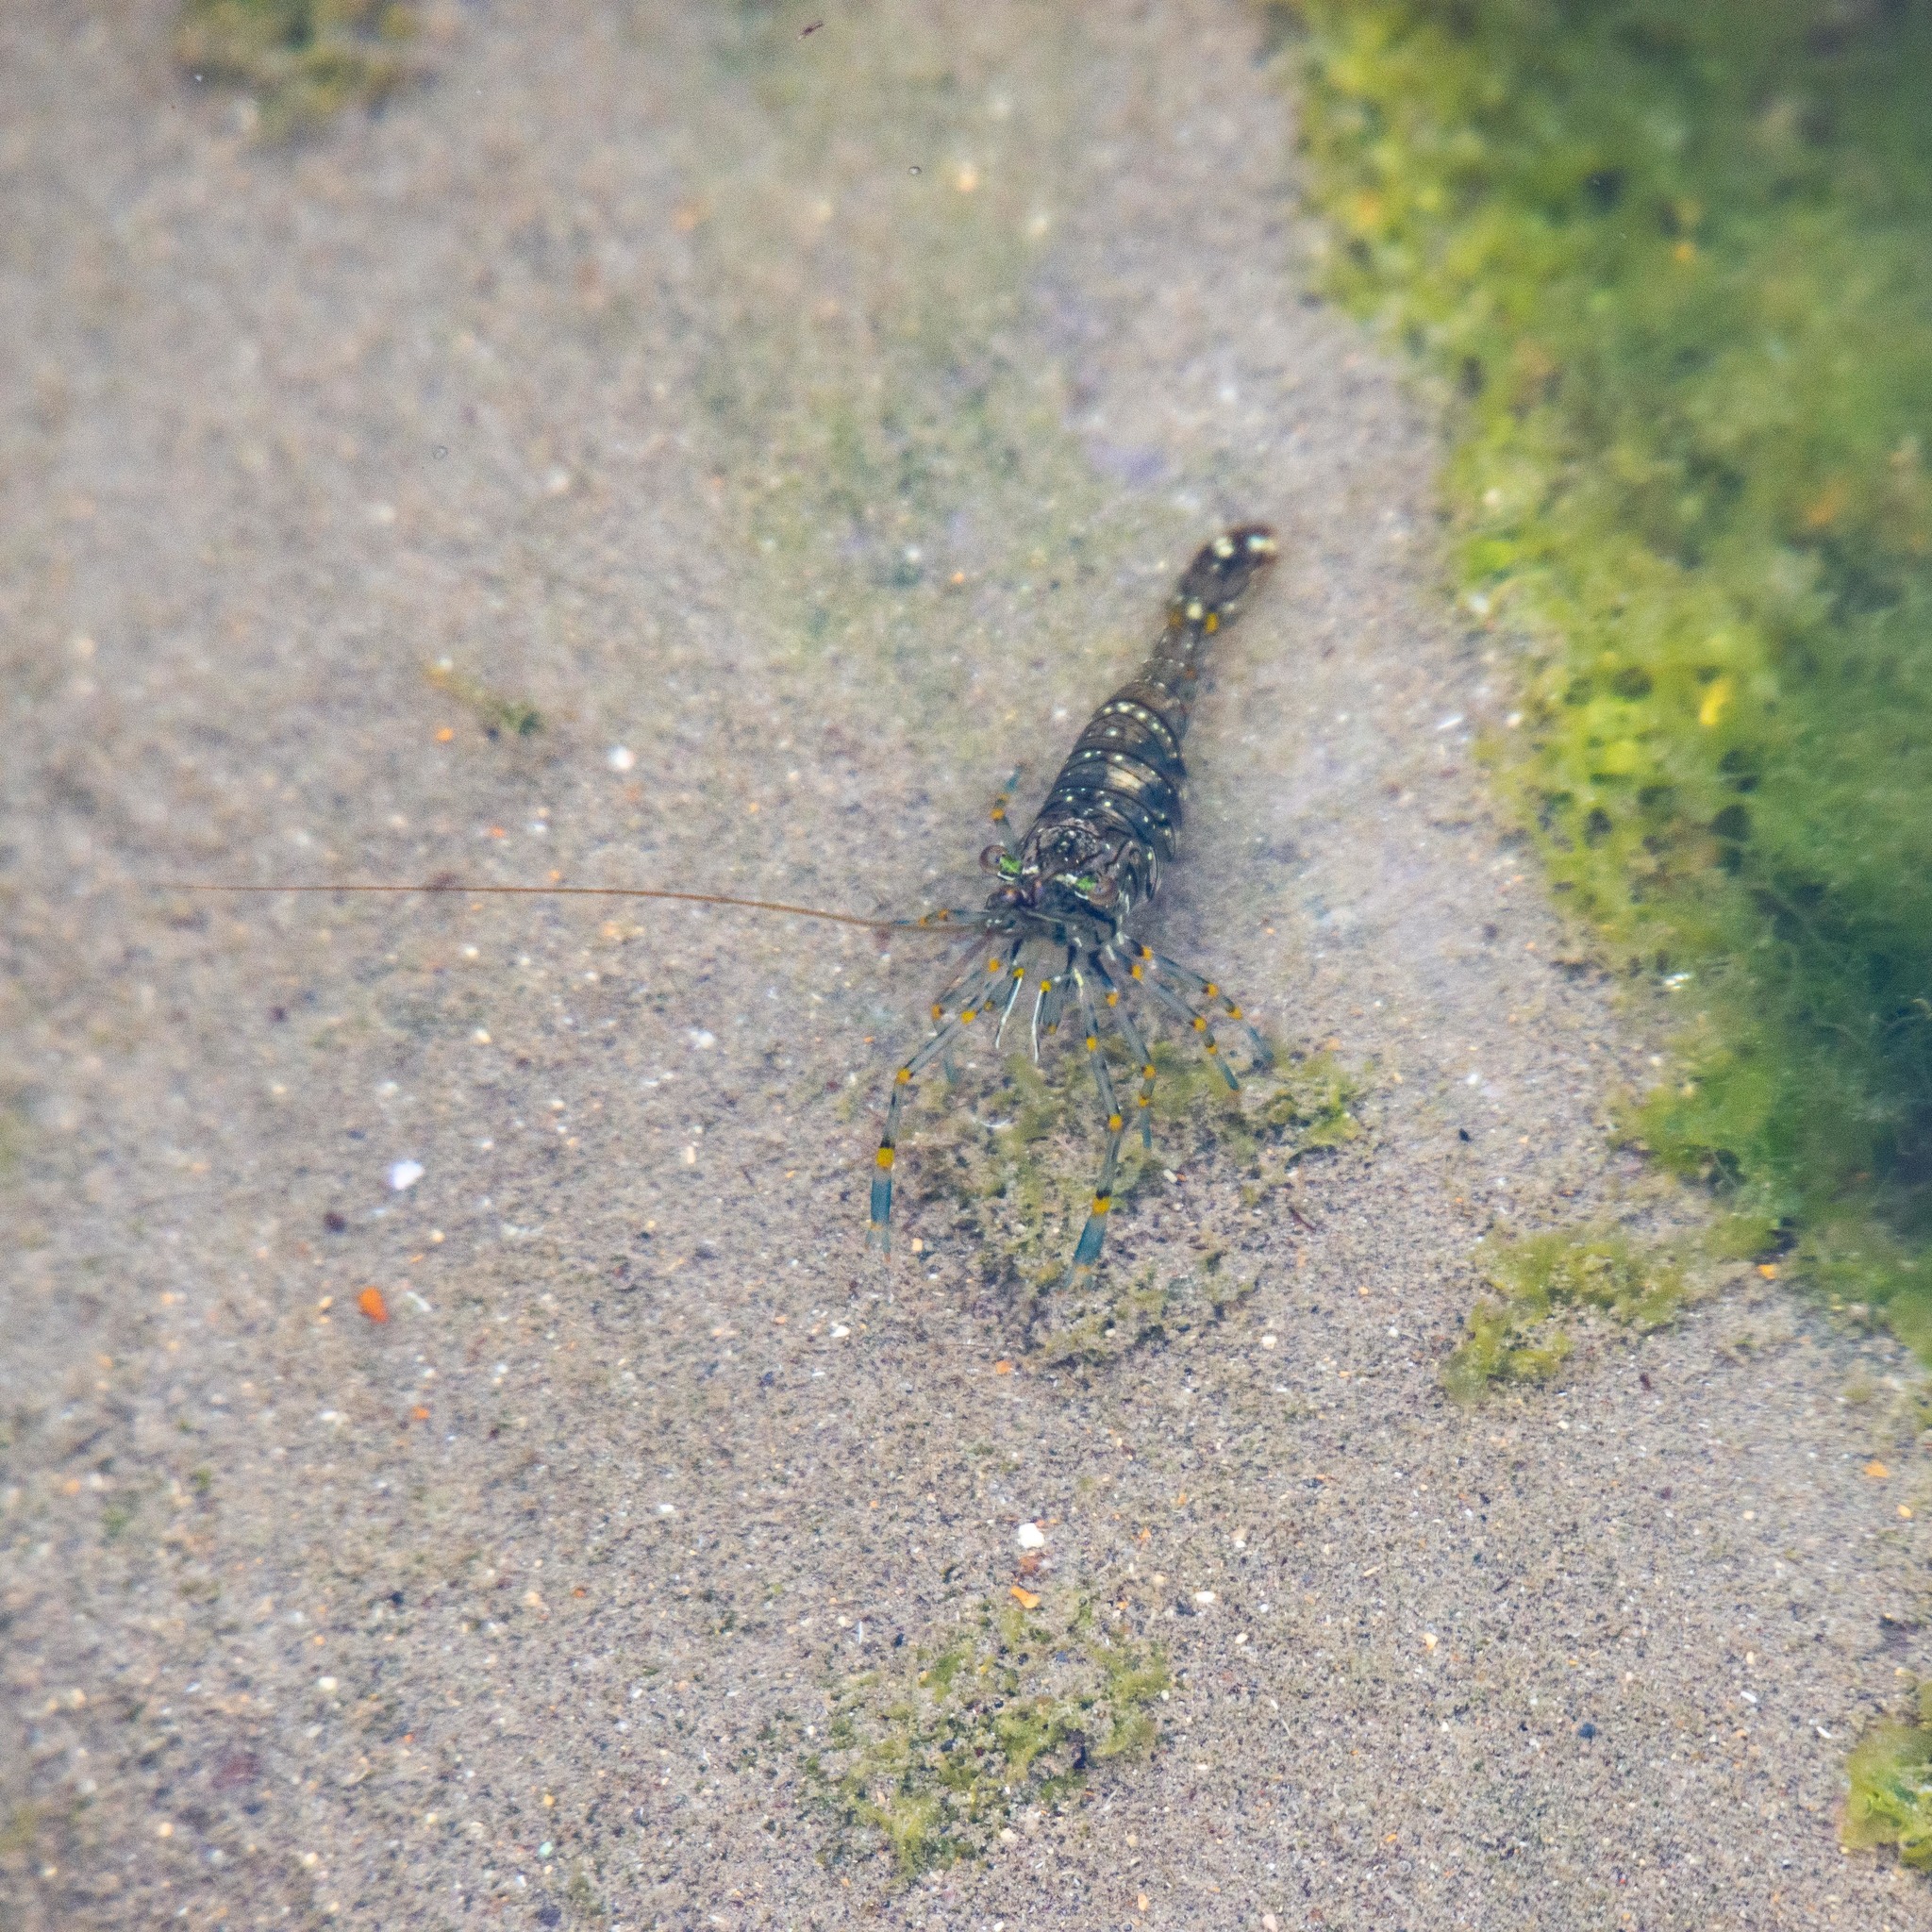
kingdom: Animalia
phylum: Arthropoda
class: Malacostraca
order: Decapoda
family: Palaemonidae
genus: Palaemon
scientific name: Palaemon elegans
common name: Grass prawm
